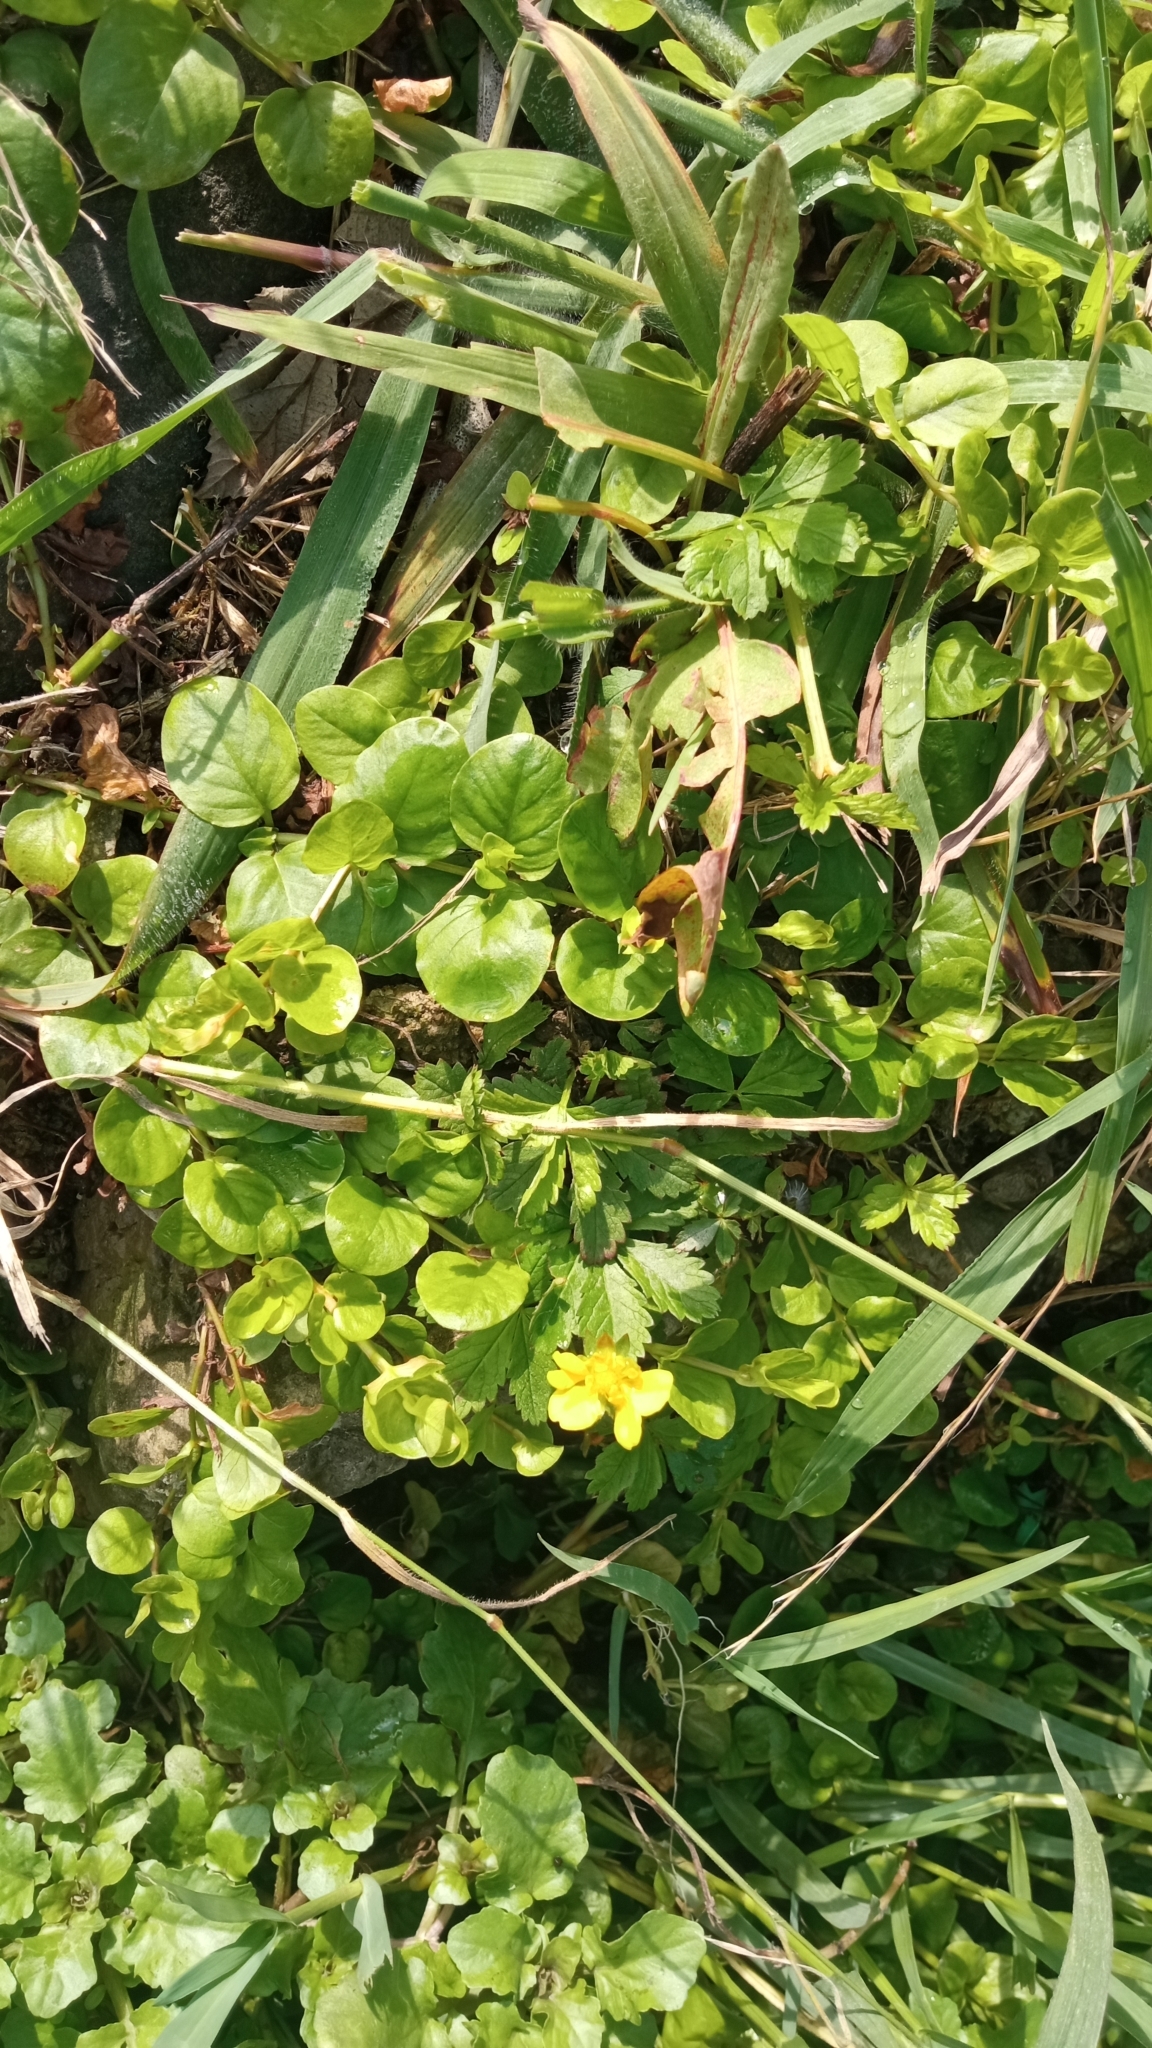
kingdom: Plantae
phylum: Tracheophyta
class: Magnoliopsida
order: Ericales
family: Primulaceae
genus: Lysimachia
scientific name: Lysimachia nummularia
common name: Moneywort
